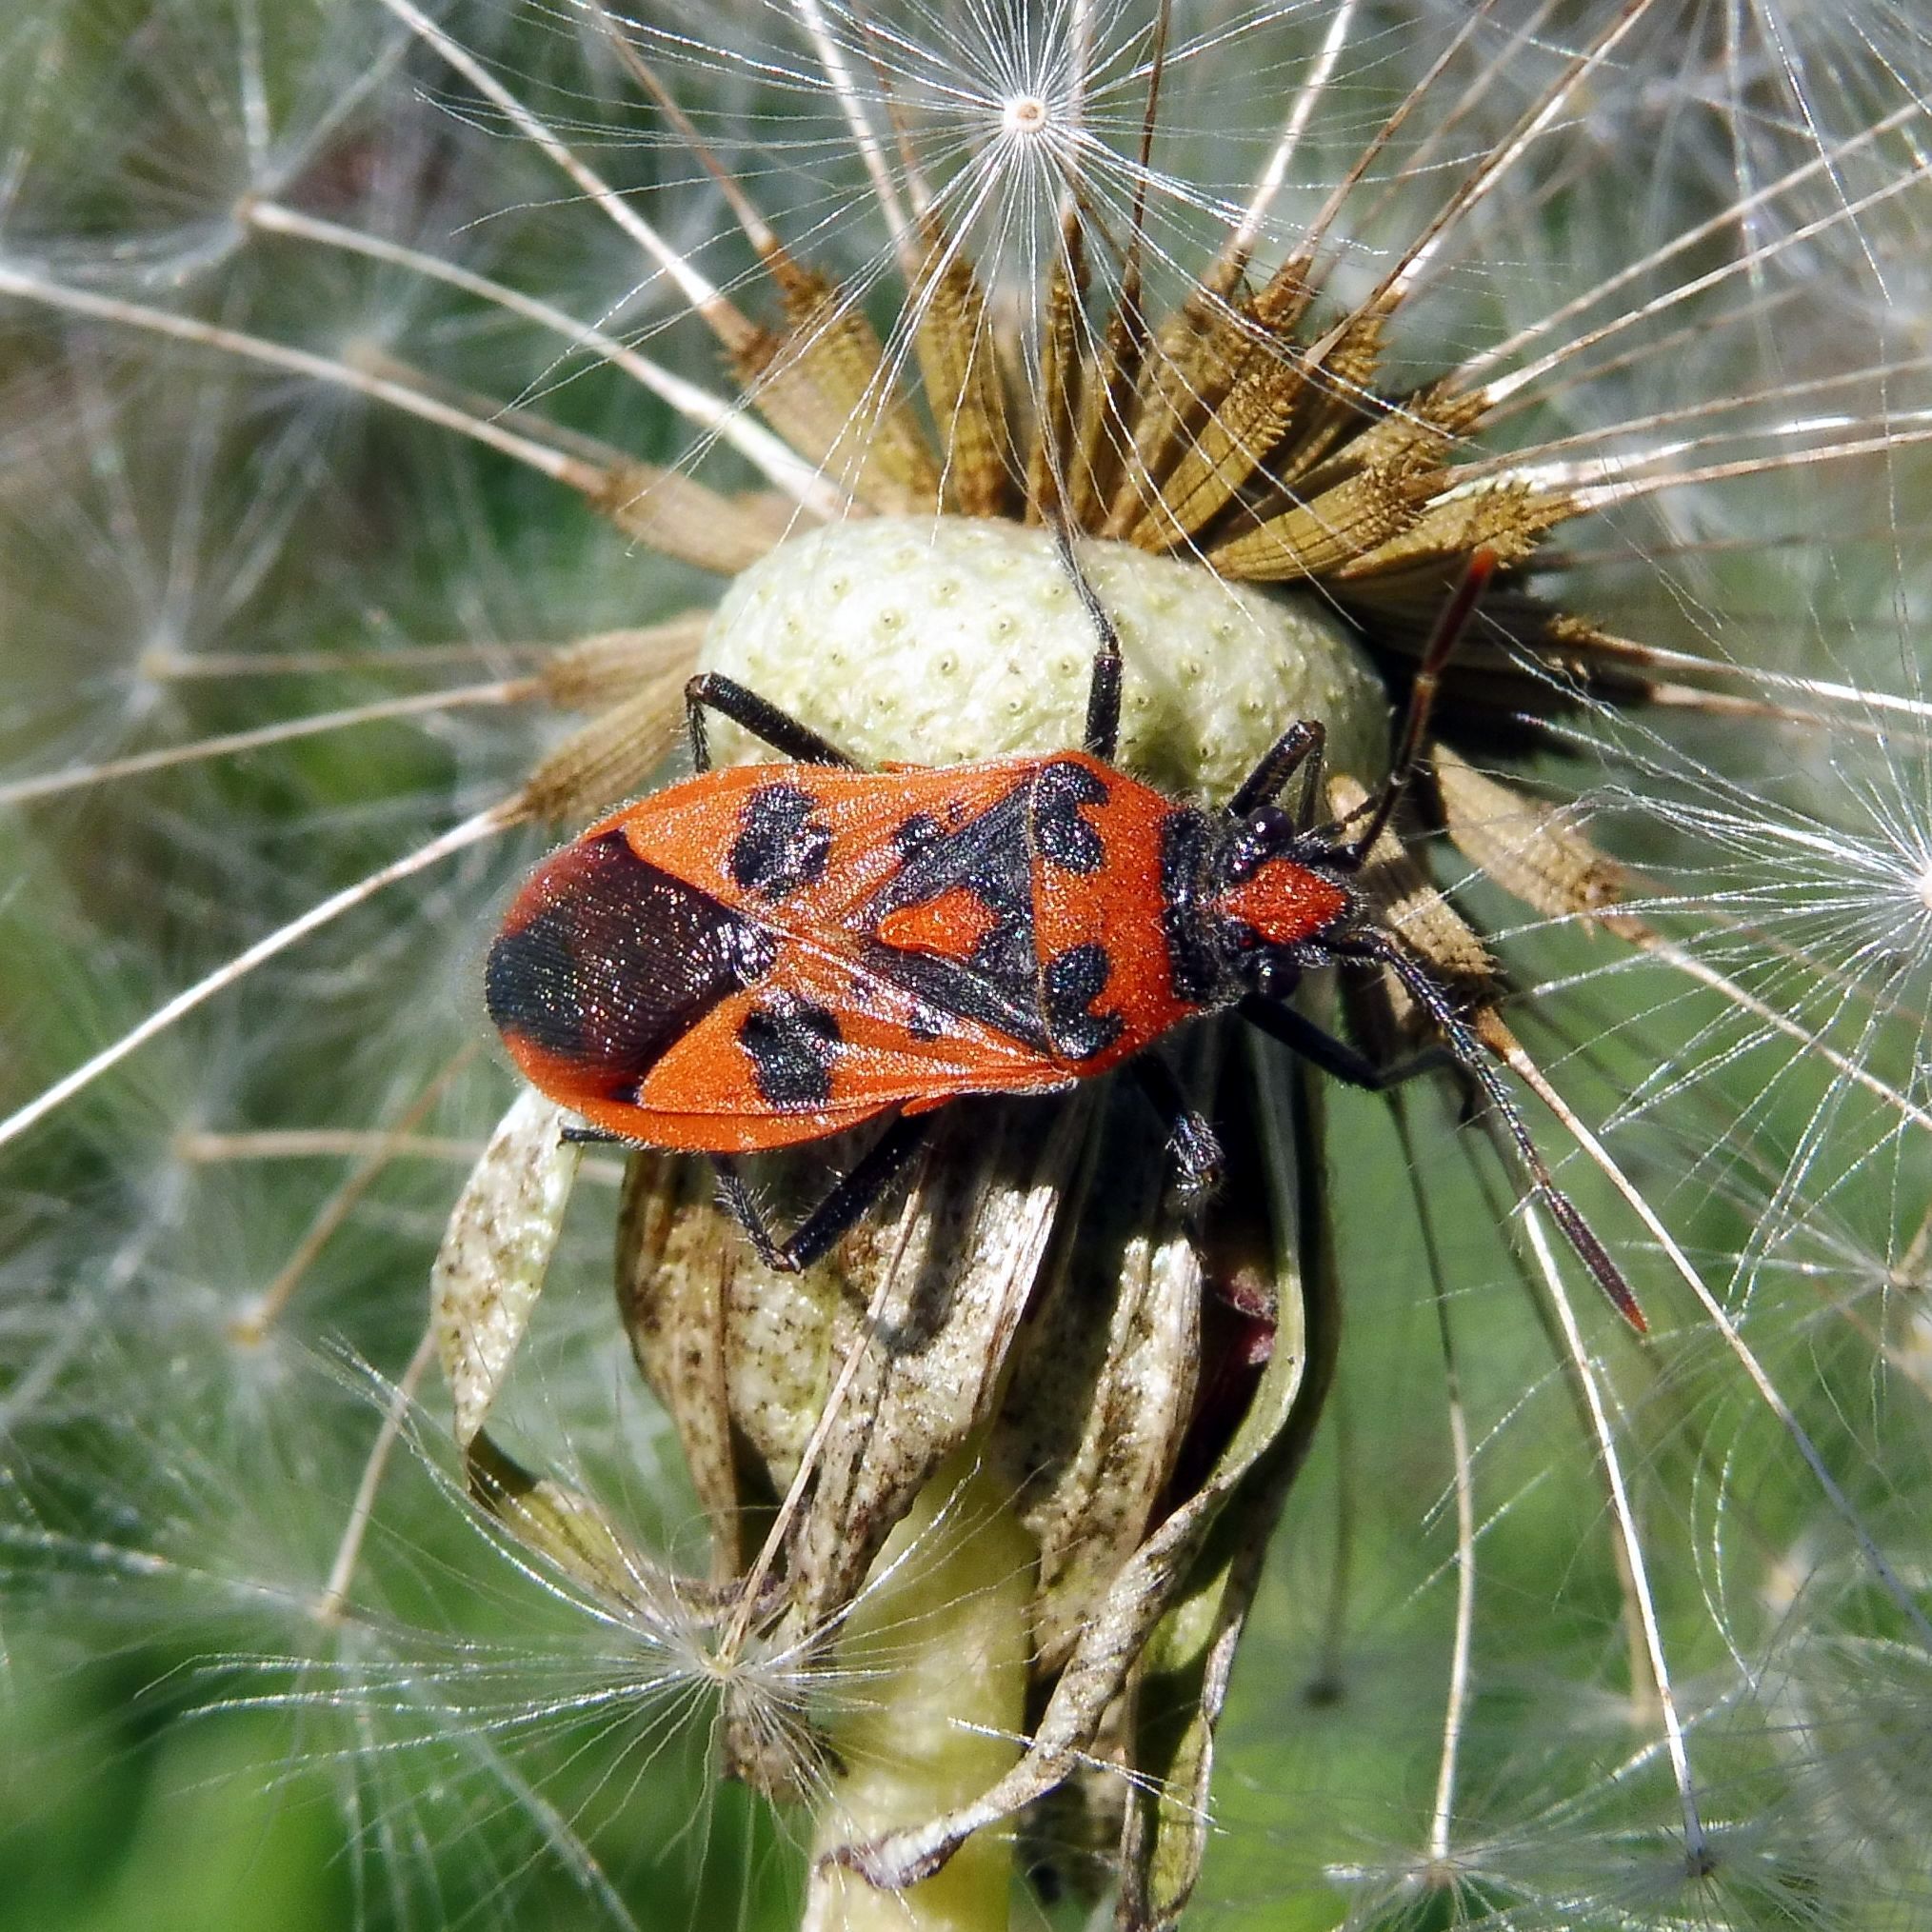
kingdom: Animalia
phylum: Arthropoda
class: Insecta
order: Hemiptera
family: Rhopalidae
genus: Corizus
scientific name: Corizus hyoscyami
